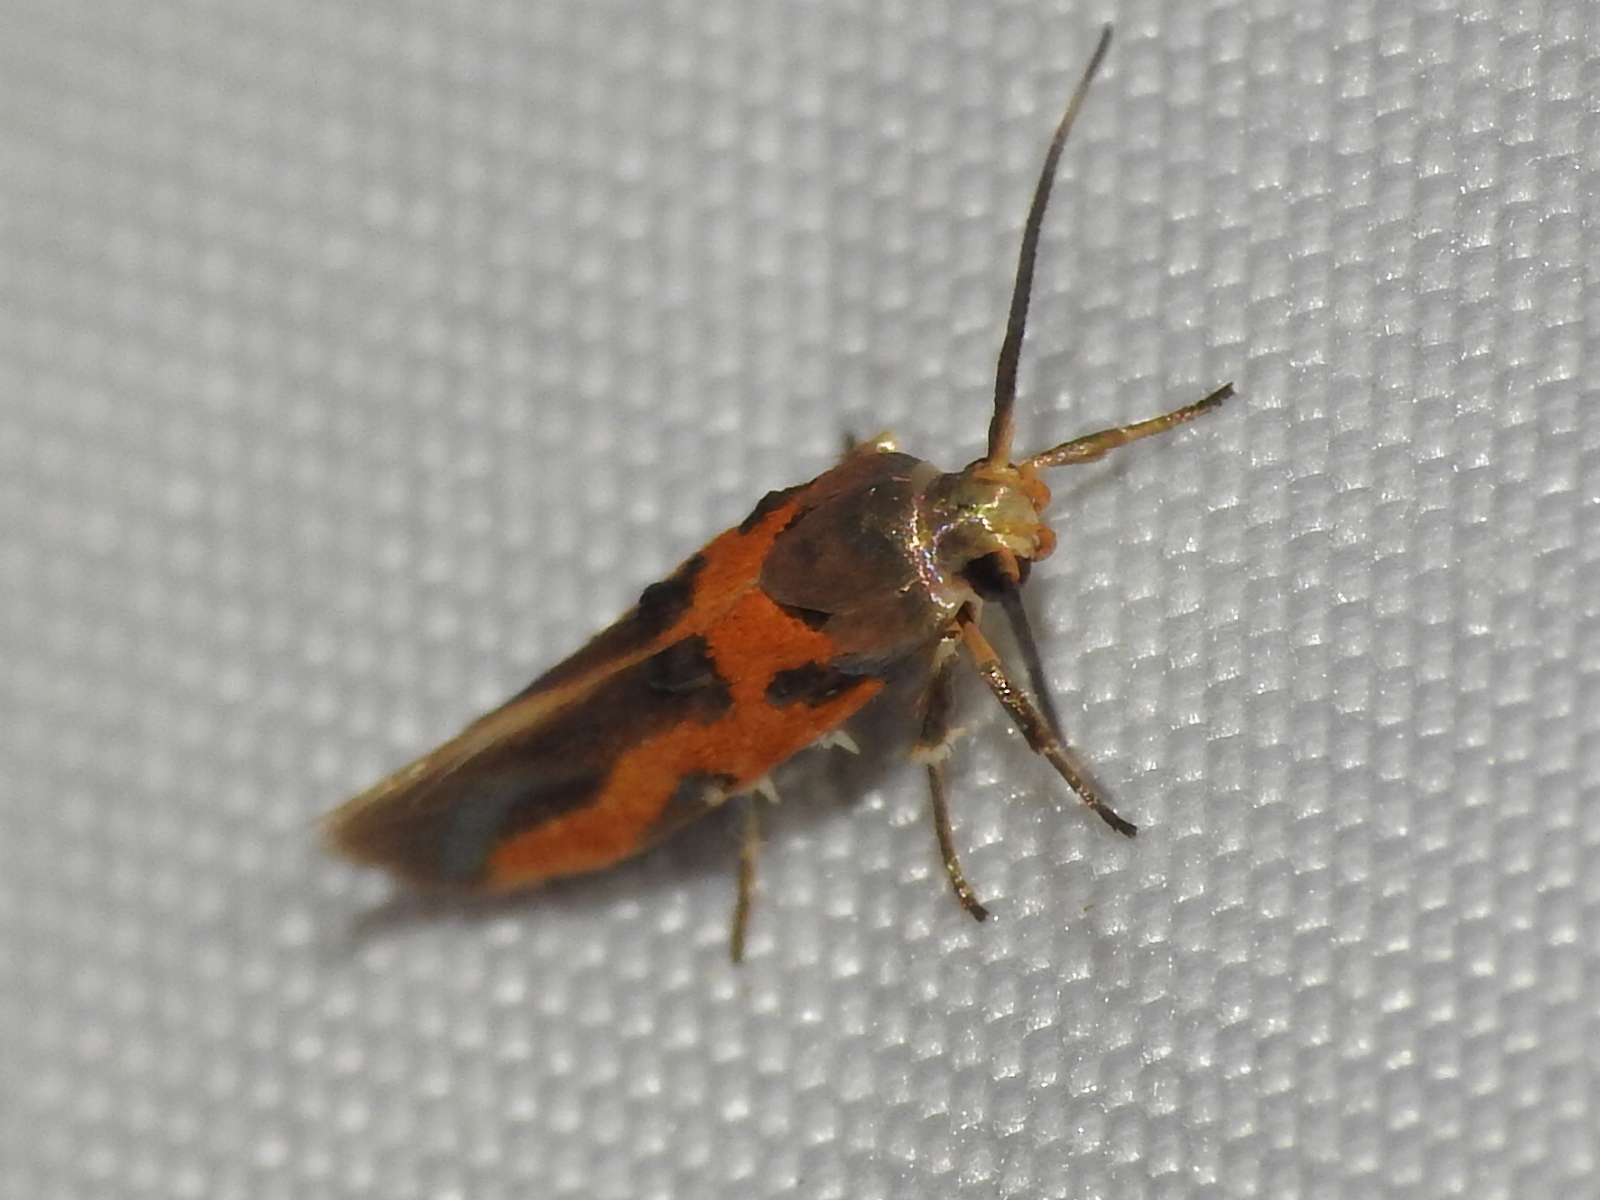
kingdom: Animalia
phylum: Arthropoda
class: Insecta
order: Lepidoptera
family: Cosmopterigidae
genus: Euclemensia
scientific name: Euclemensia bassettella
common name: Kermes scale moth
